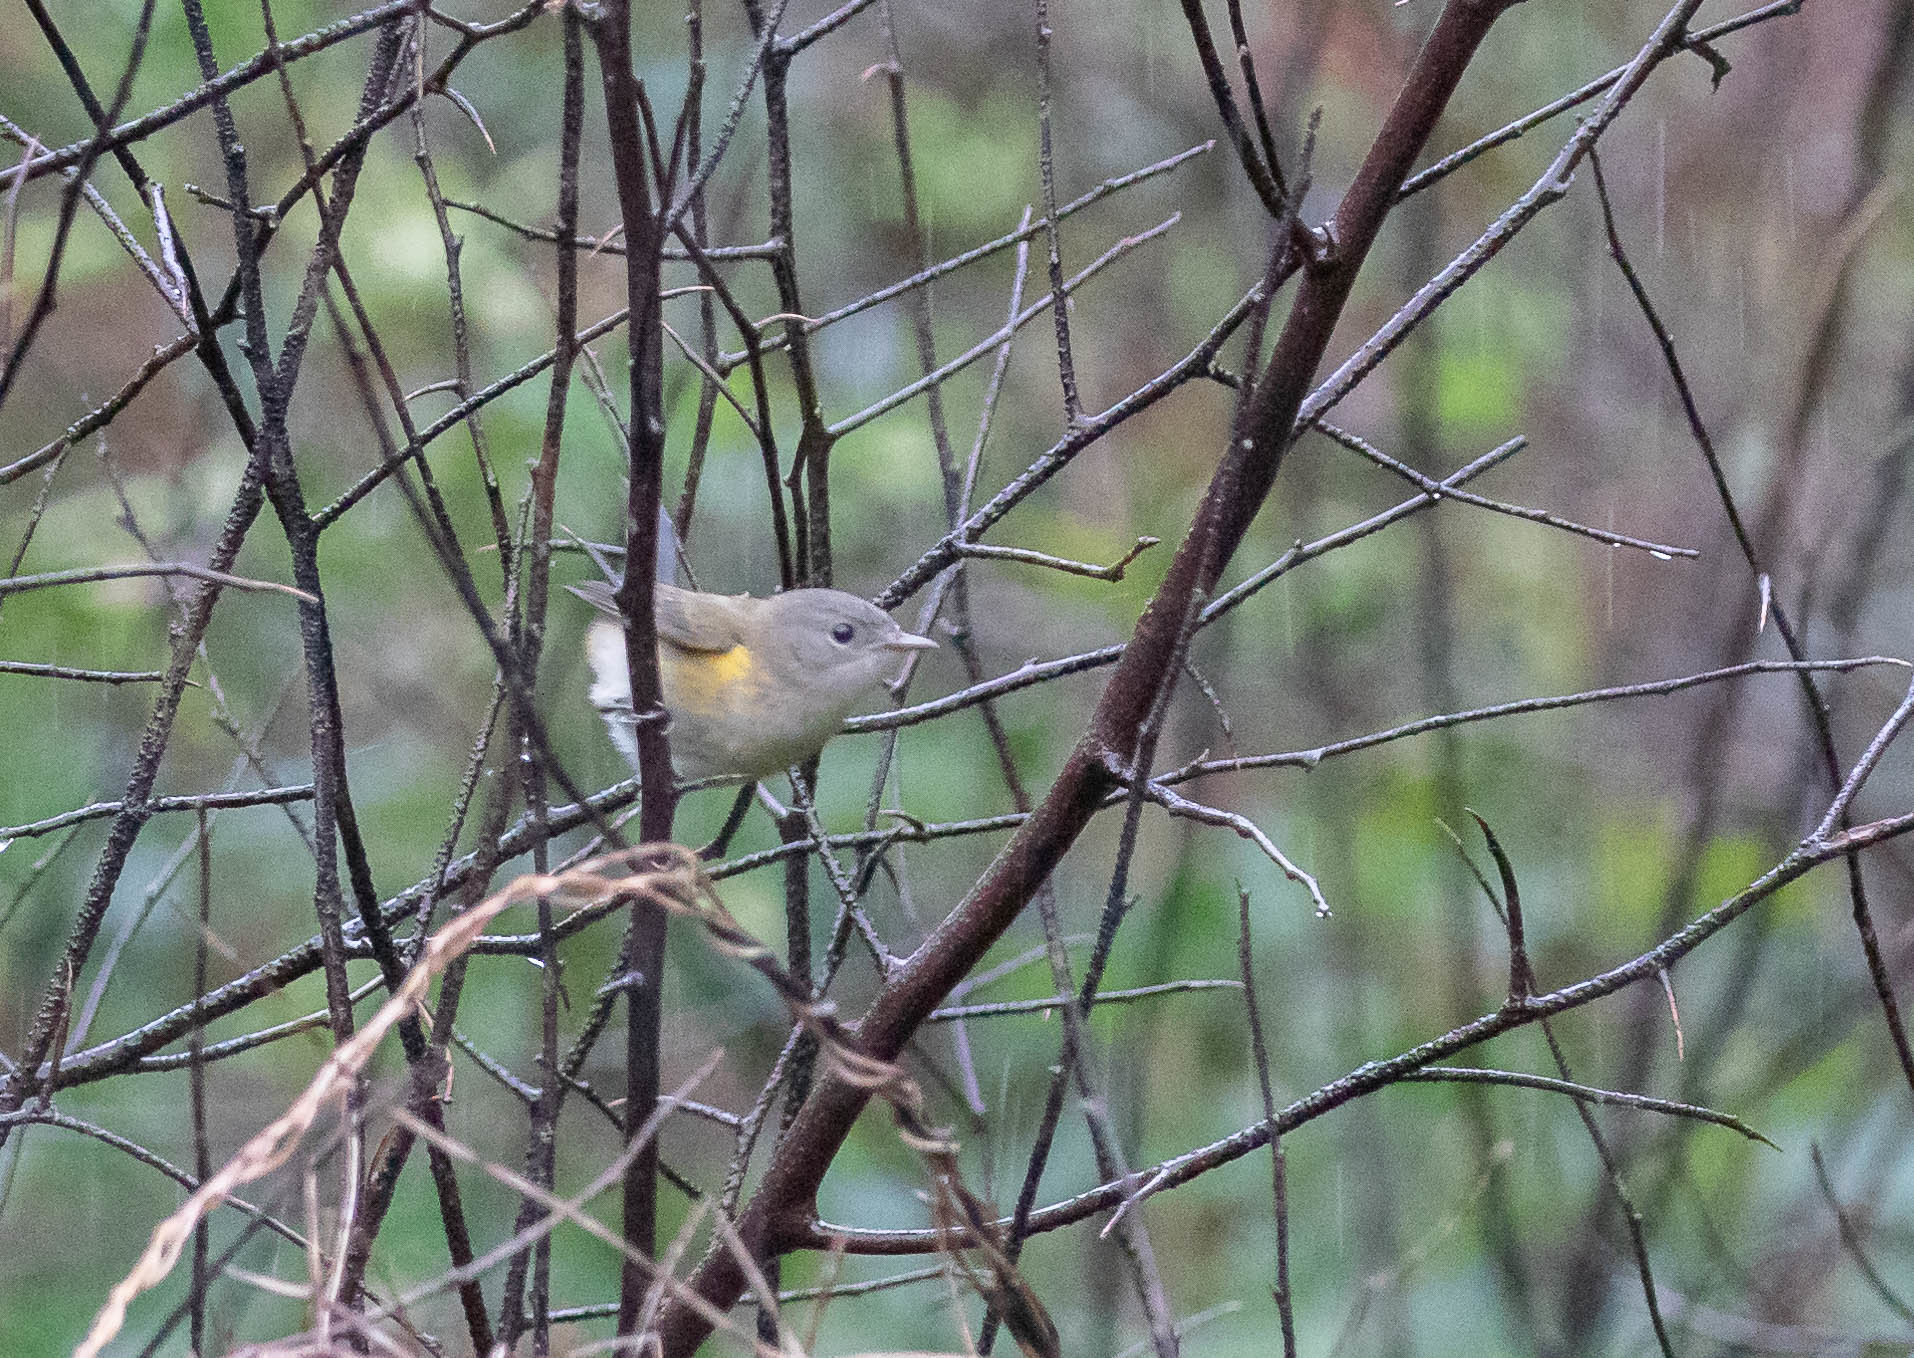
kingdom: Animalia
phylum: Chordata
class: Aves
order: Passeriformes
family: Parulidae
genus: Setophaga
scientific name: Setophaga ruticilla
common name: American redstart
